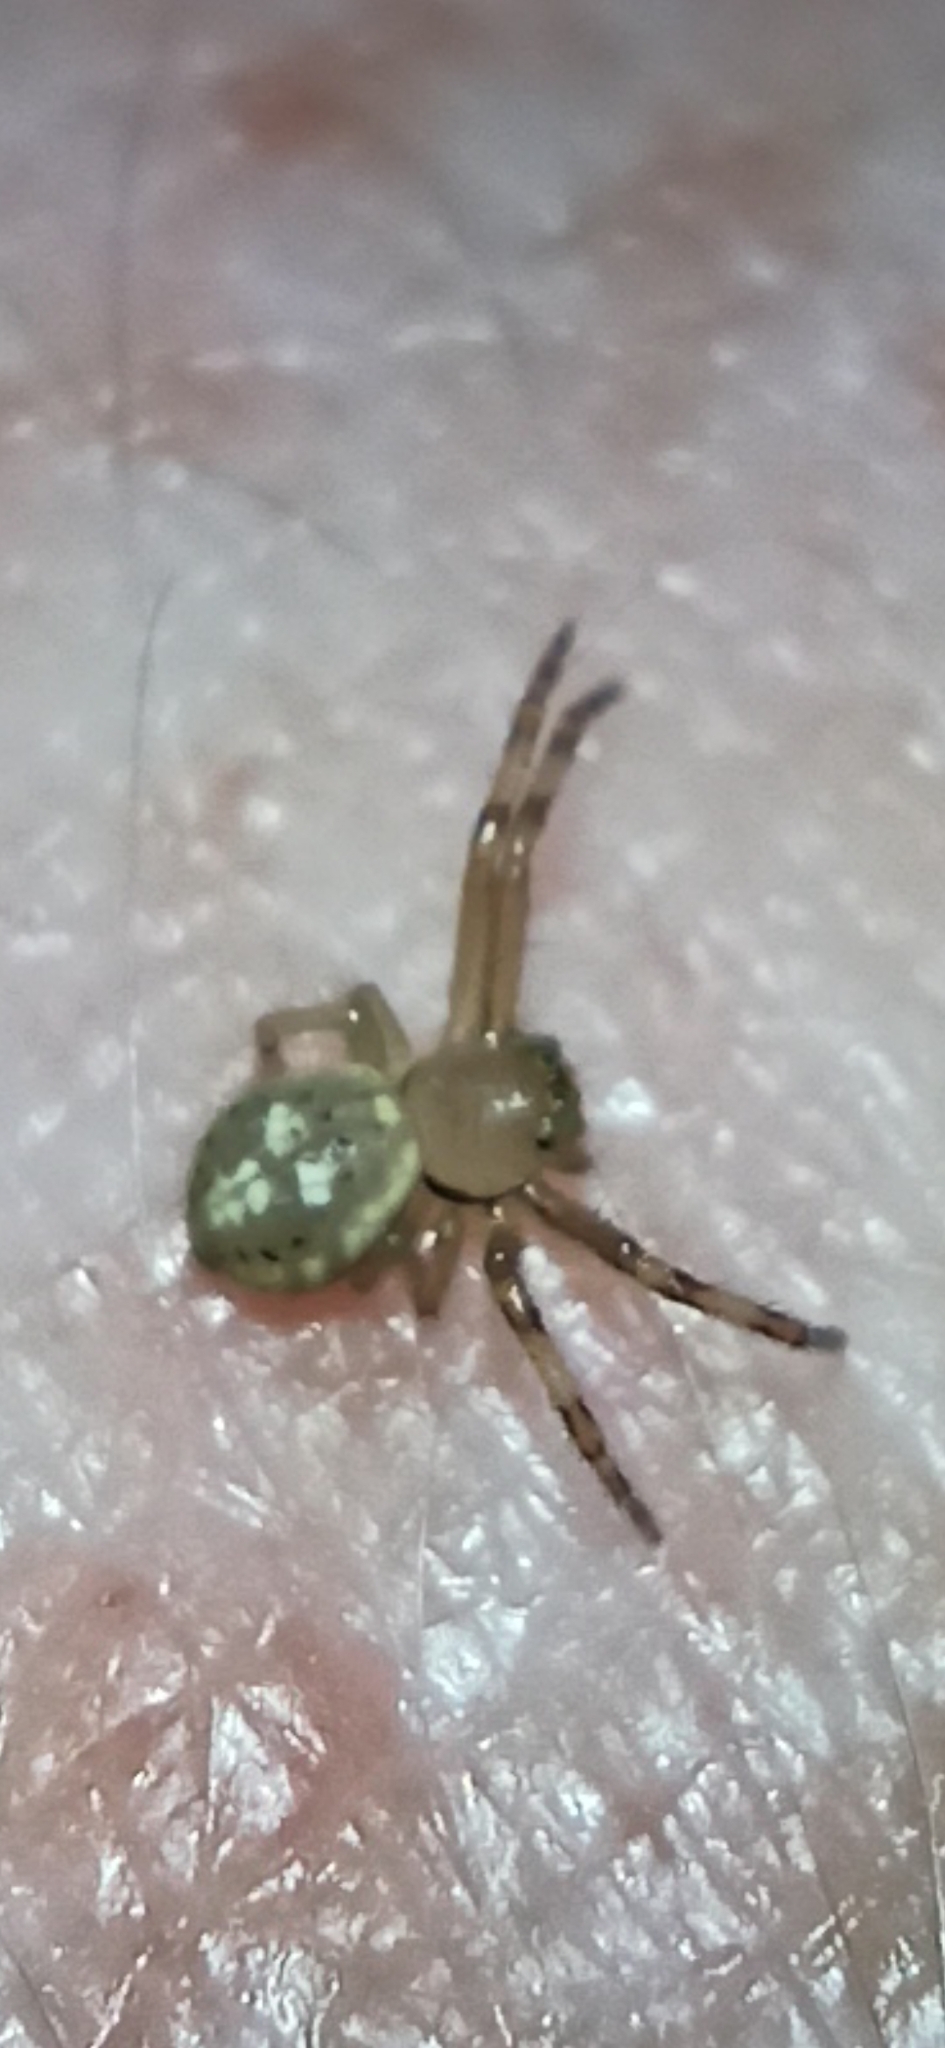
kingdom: Animalia
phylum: Arthropoda
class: Arachnida
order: Araneae
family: Thomisidae
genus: Diaea
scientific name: Diaea ambara
